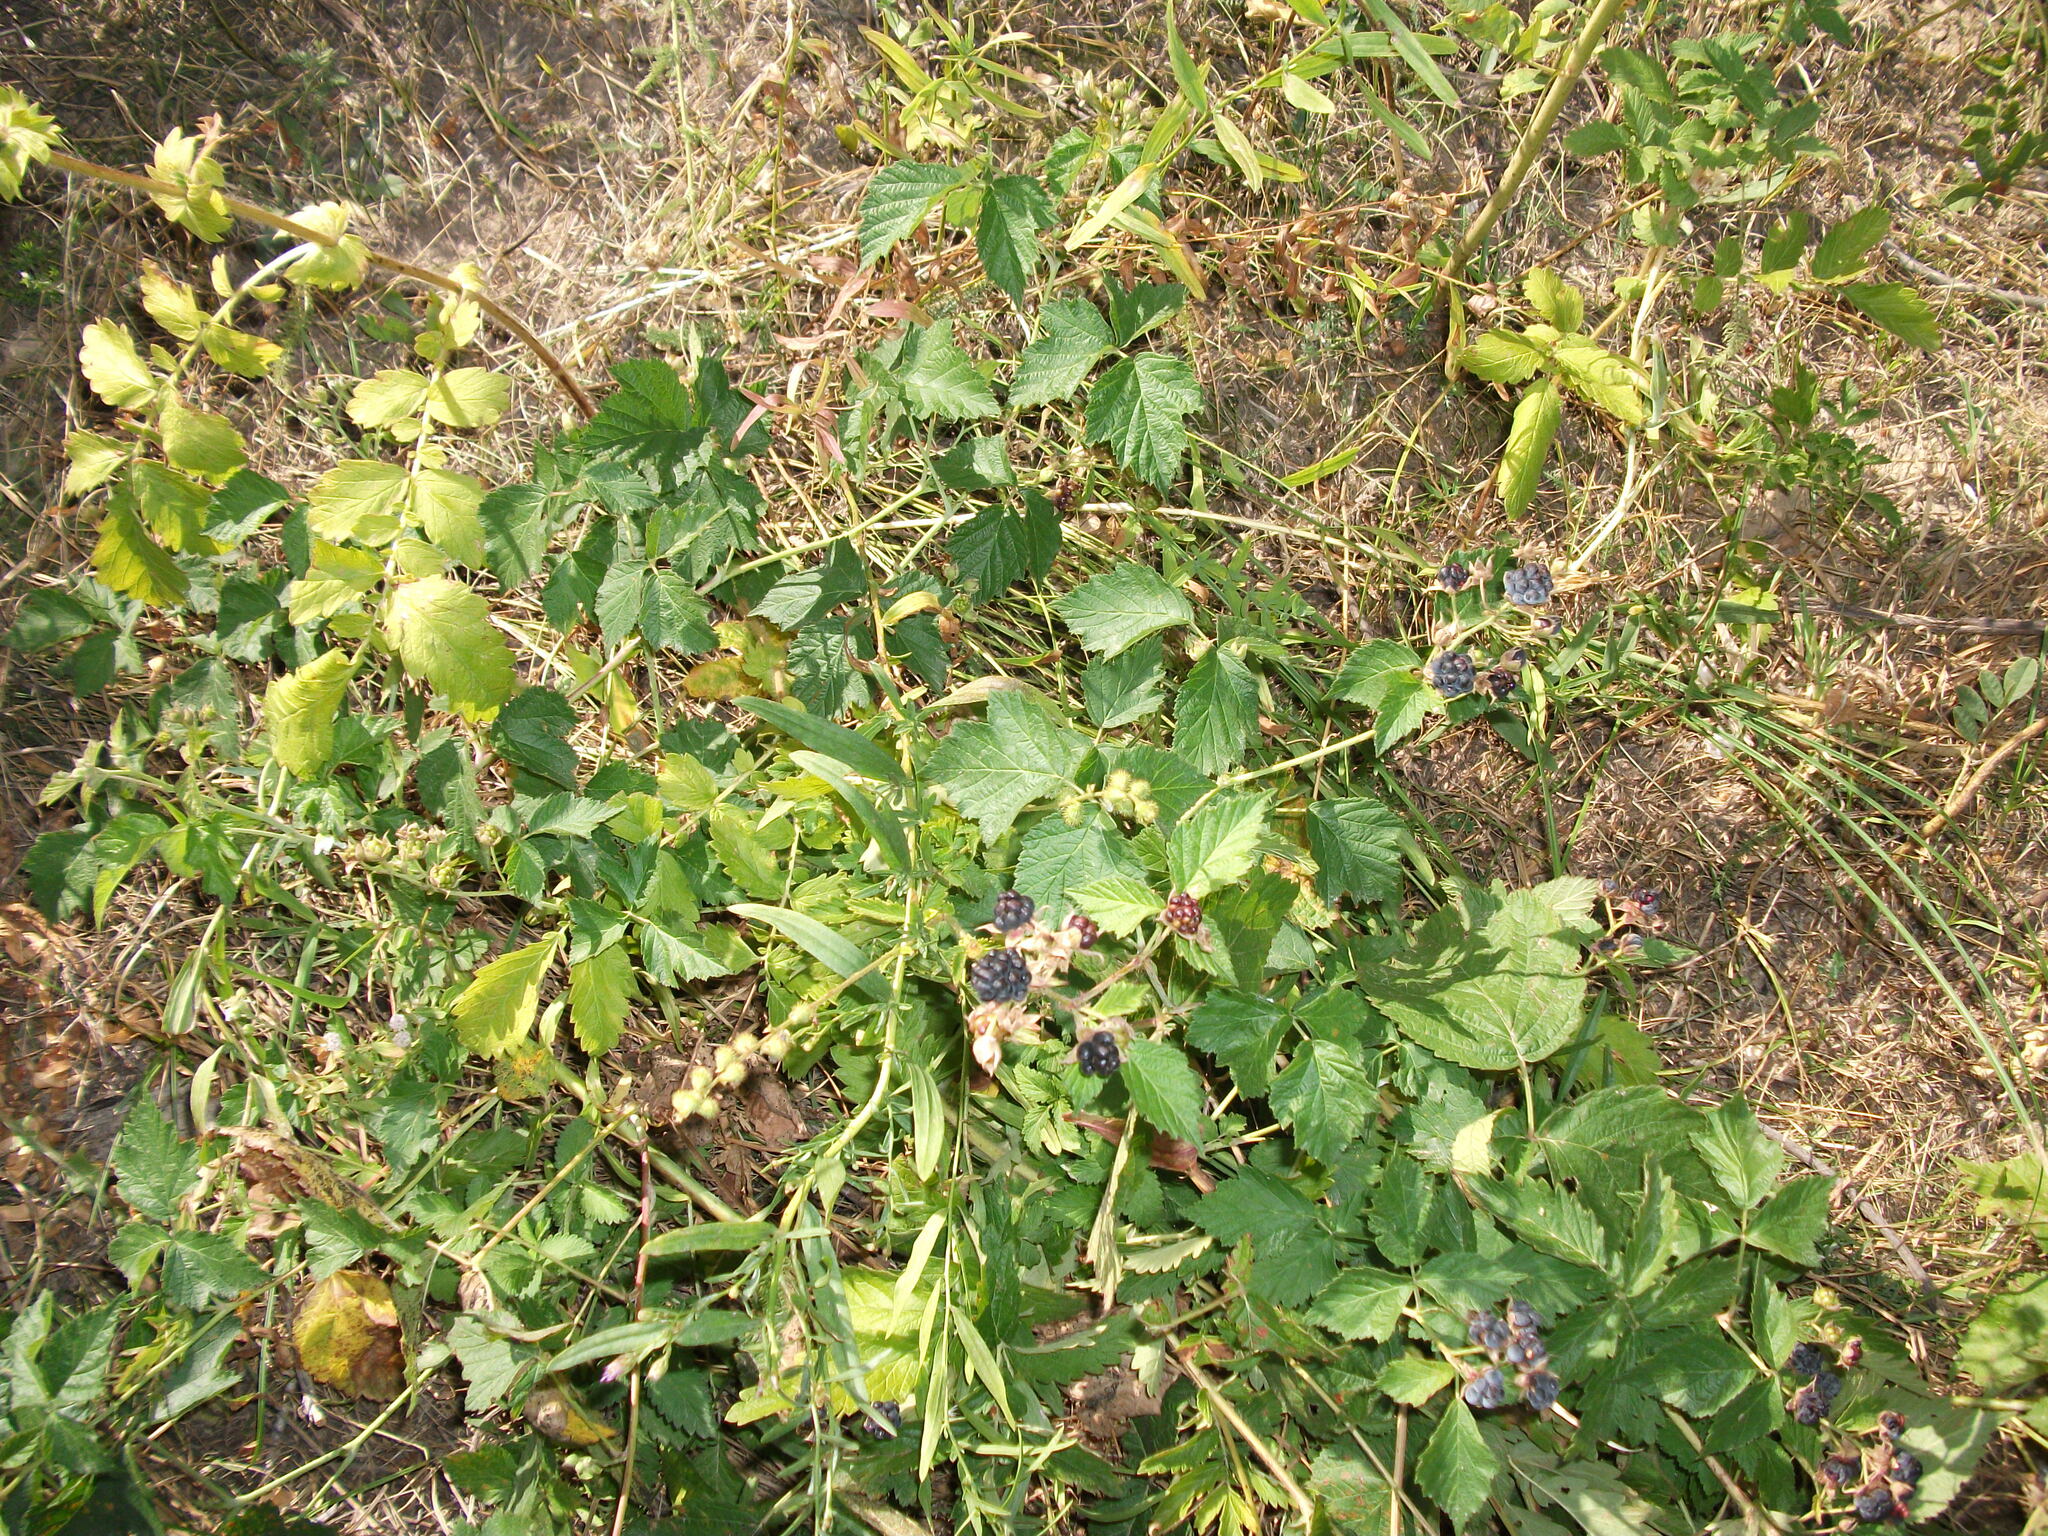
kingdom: Plantae
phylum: Tracheophyta
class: Magnoliopsida
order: Rosales
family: Rosaceae
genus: Rubus
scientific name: Rubus caesius
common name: Dewberry
